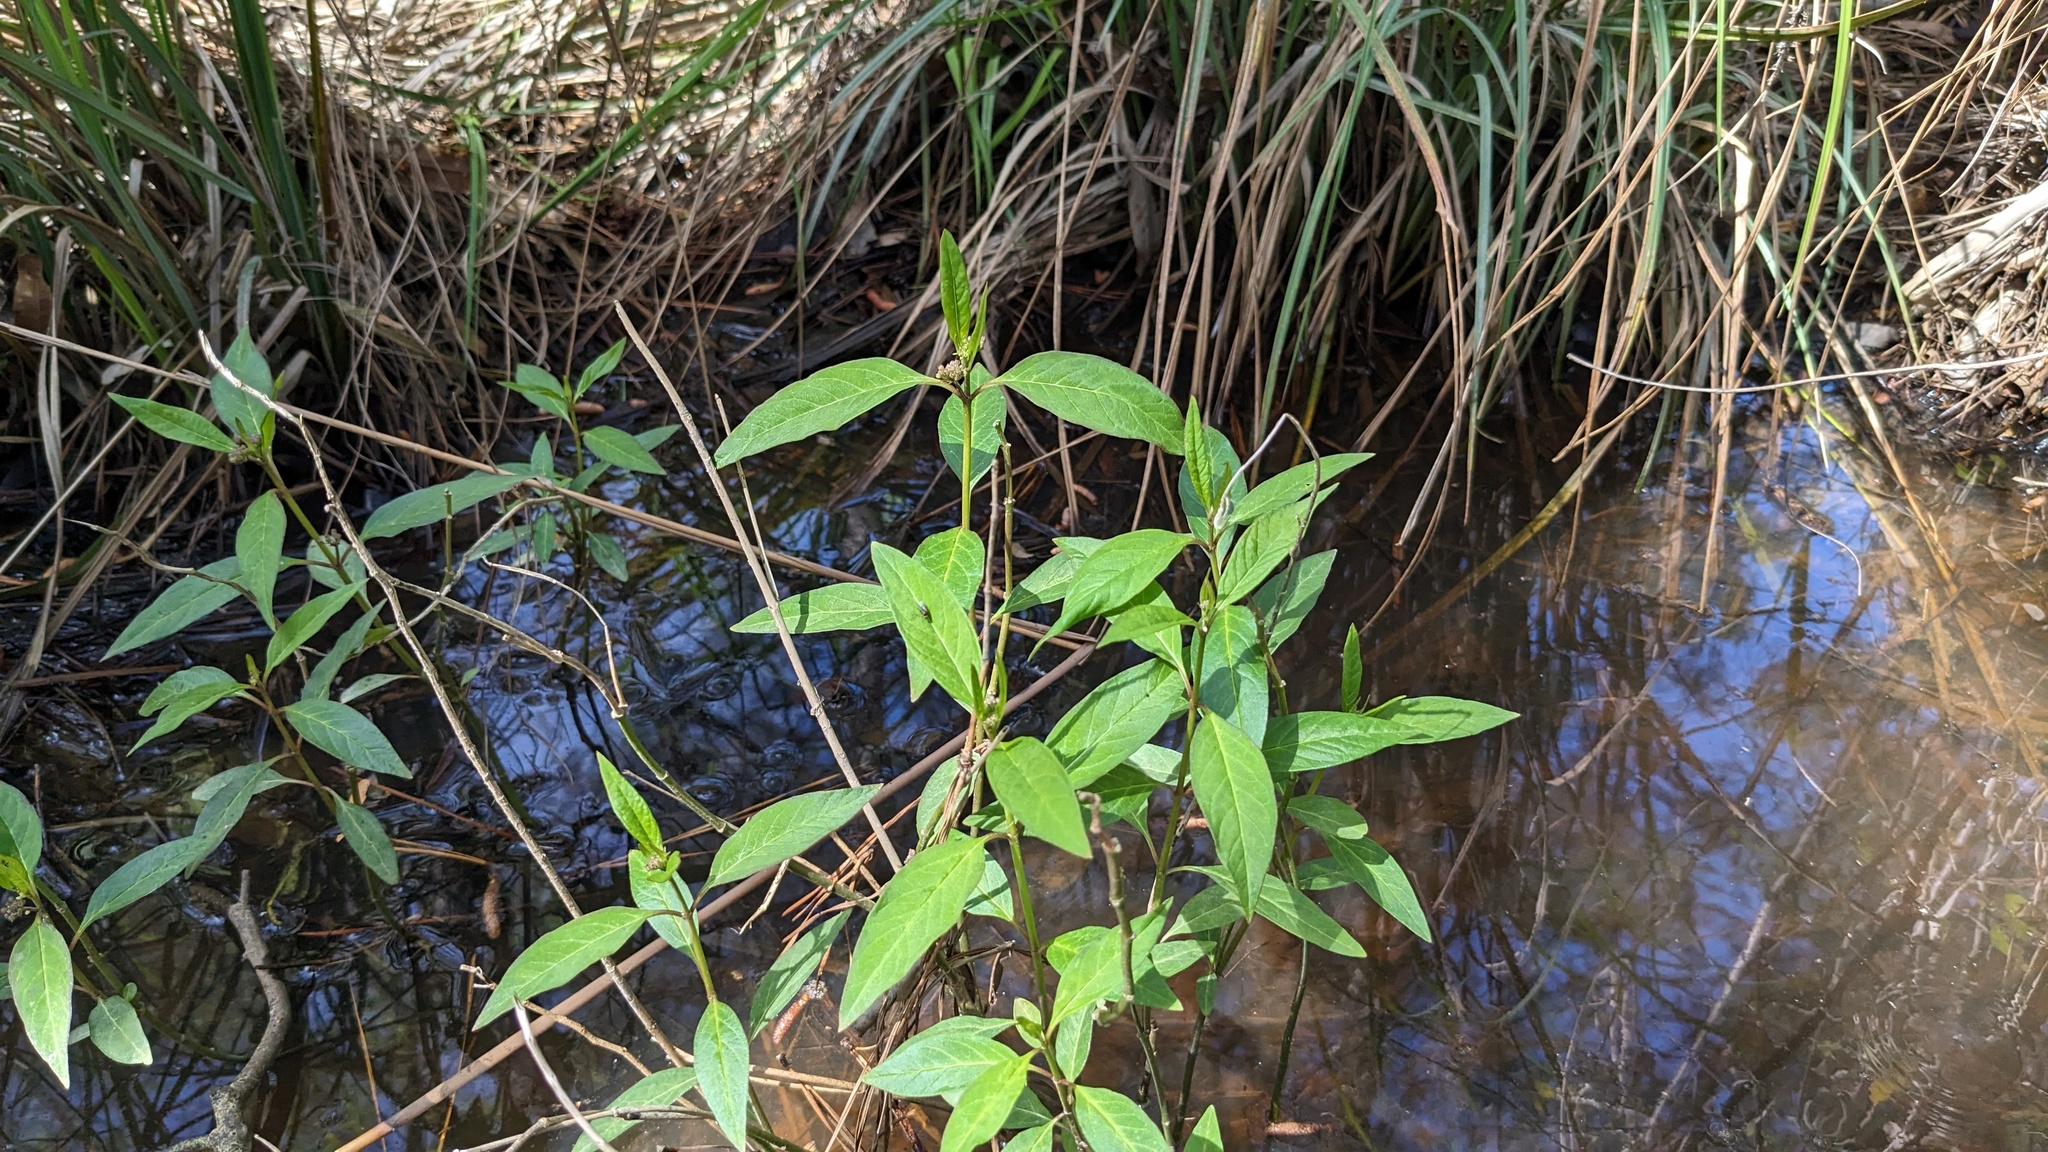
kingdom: Plantae
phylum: Tracheophyta
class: Magnoliopsida
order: Gentianales
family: Apocynaceae
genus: Asclepias
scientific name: Asclepias perennis
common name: Smooth-seed milkweed
